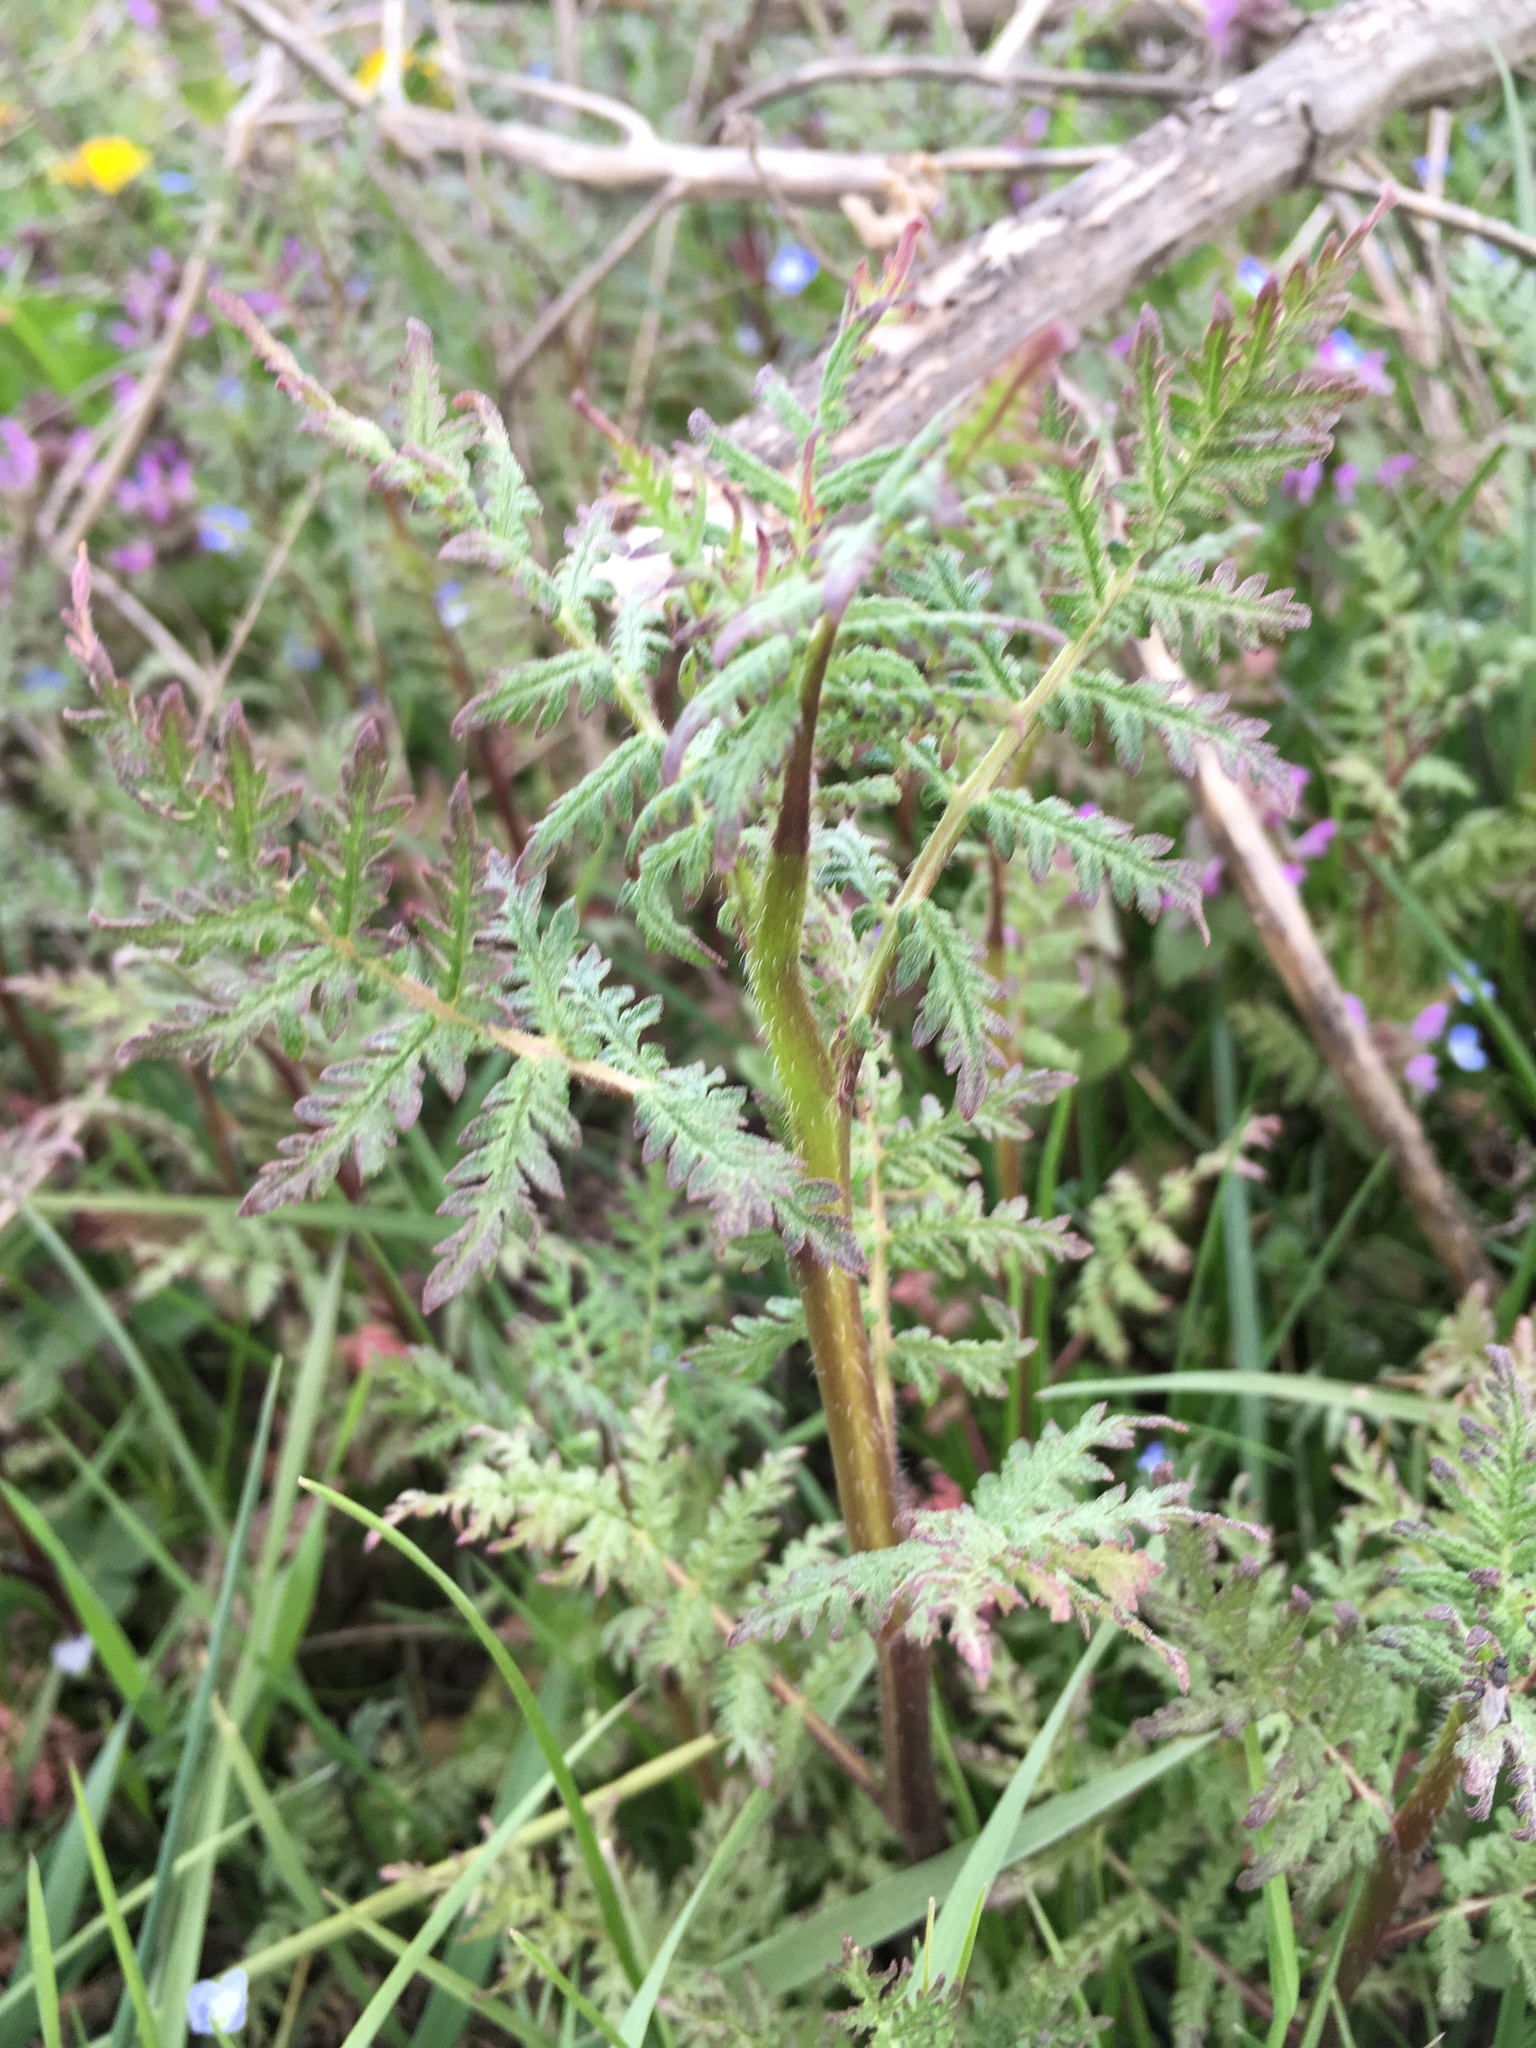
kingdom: Plantae
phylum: Tracheophyta
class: Magnoliopsida
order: Boraginales
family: Hydrophyllaceae
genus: Phacelia
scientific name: Phacelia tanacetifolia
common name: Phacelia
